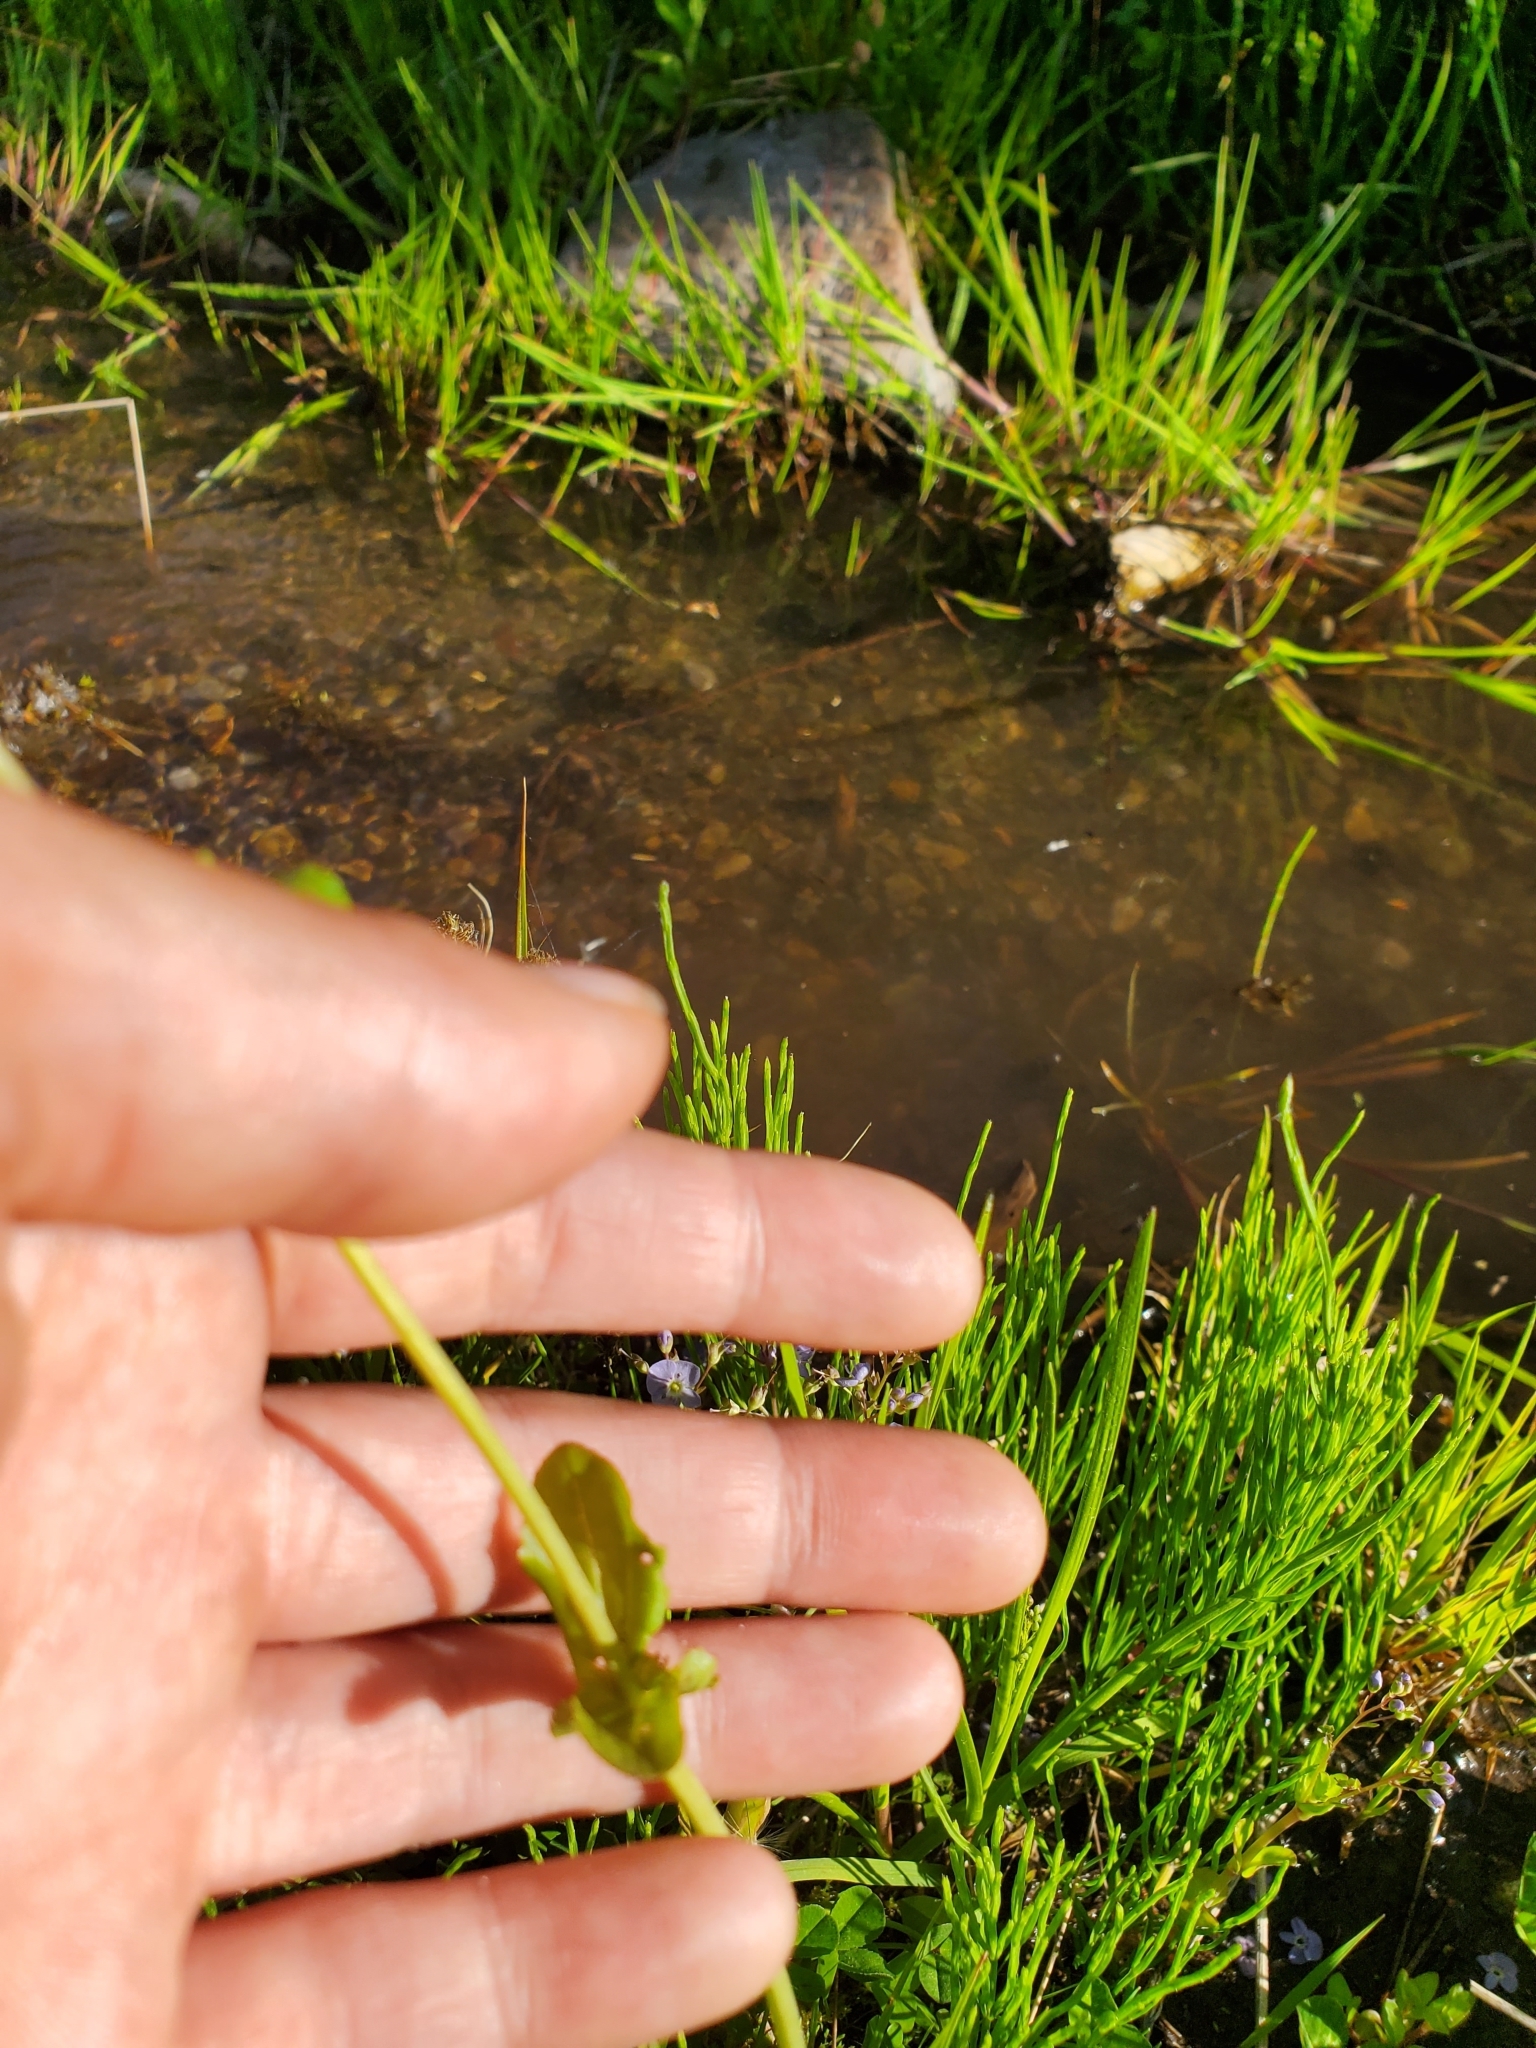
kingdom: Plantae
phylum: Tracheophyta
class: Magnoliopsida
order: Lamiales
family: Phrymaceae
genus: Erythranthe
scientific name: Erythranthe guttata
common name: Monkeyflower
